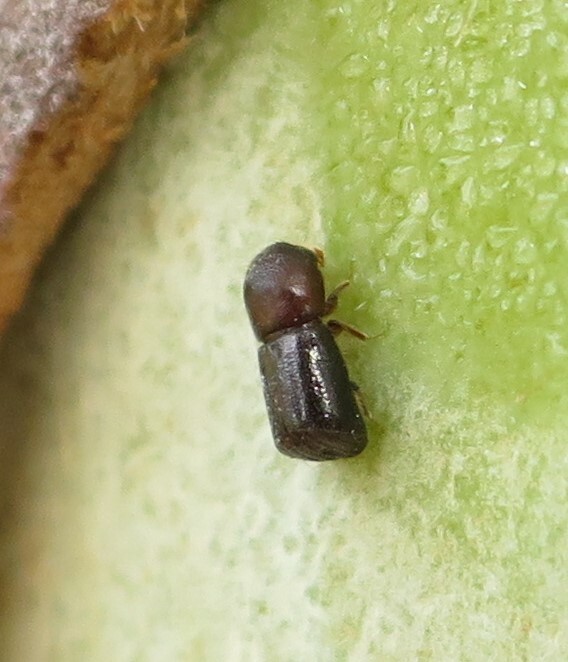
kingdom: Animalia
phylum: Arthropoda
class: Insecta
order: Coleoptera
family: Curculionidae
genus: Amasa
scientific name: Amasa truncatus
